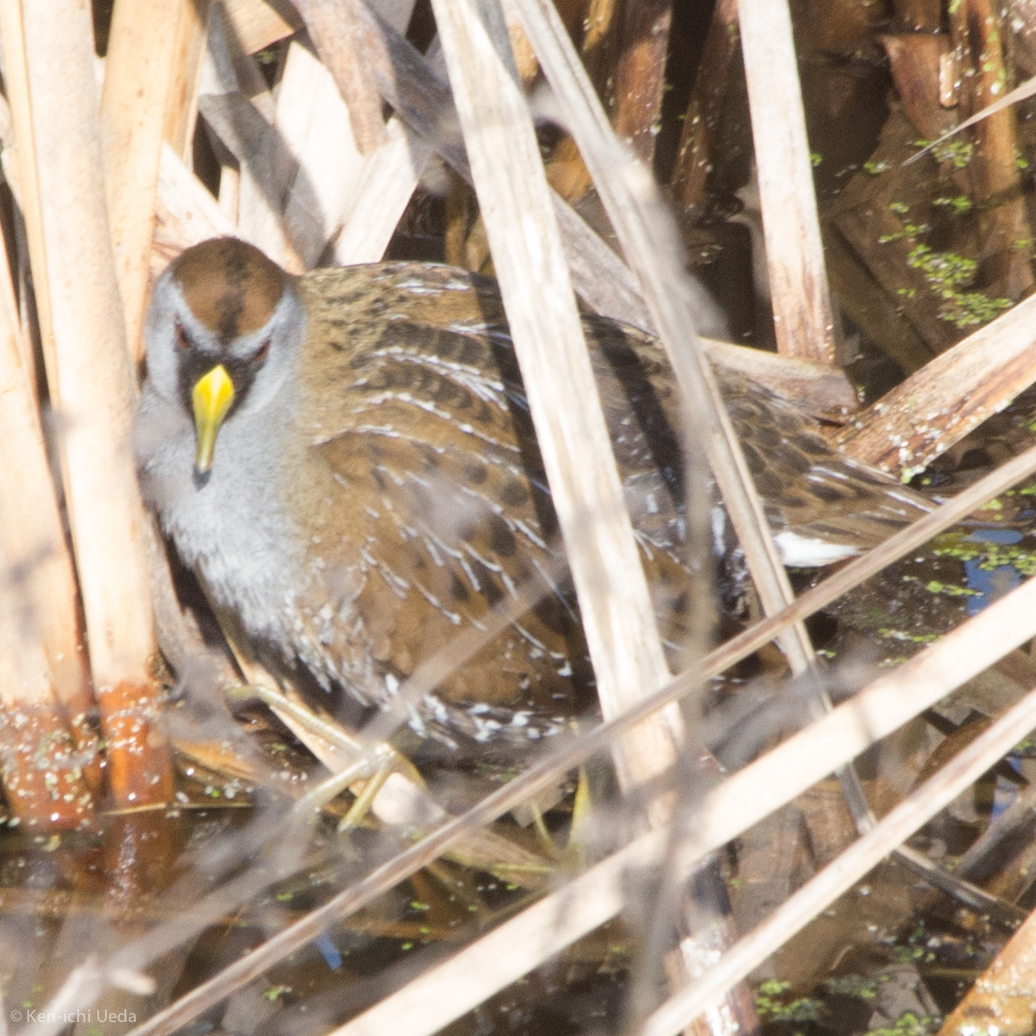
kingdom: Animalia
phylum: Chordata
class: Aves
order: Gruiformes
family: Rallidae
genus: Porzana
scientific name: Porzana carolina
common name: Sora
